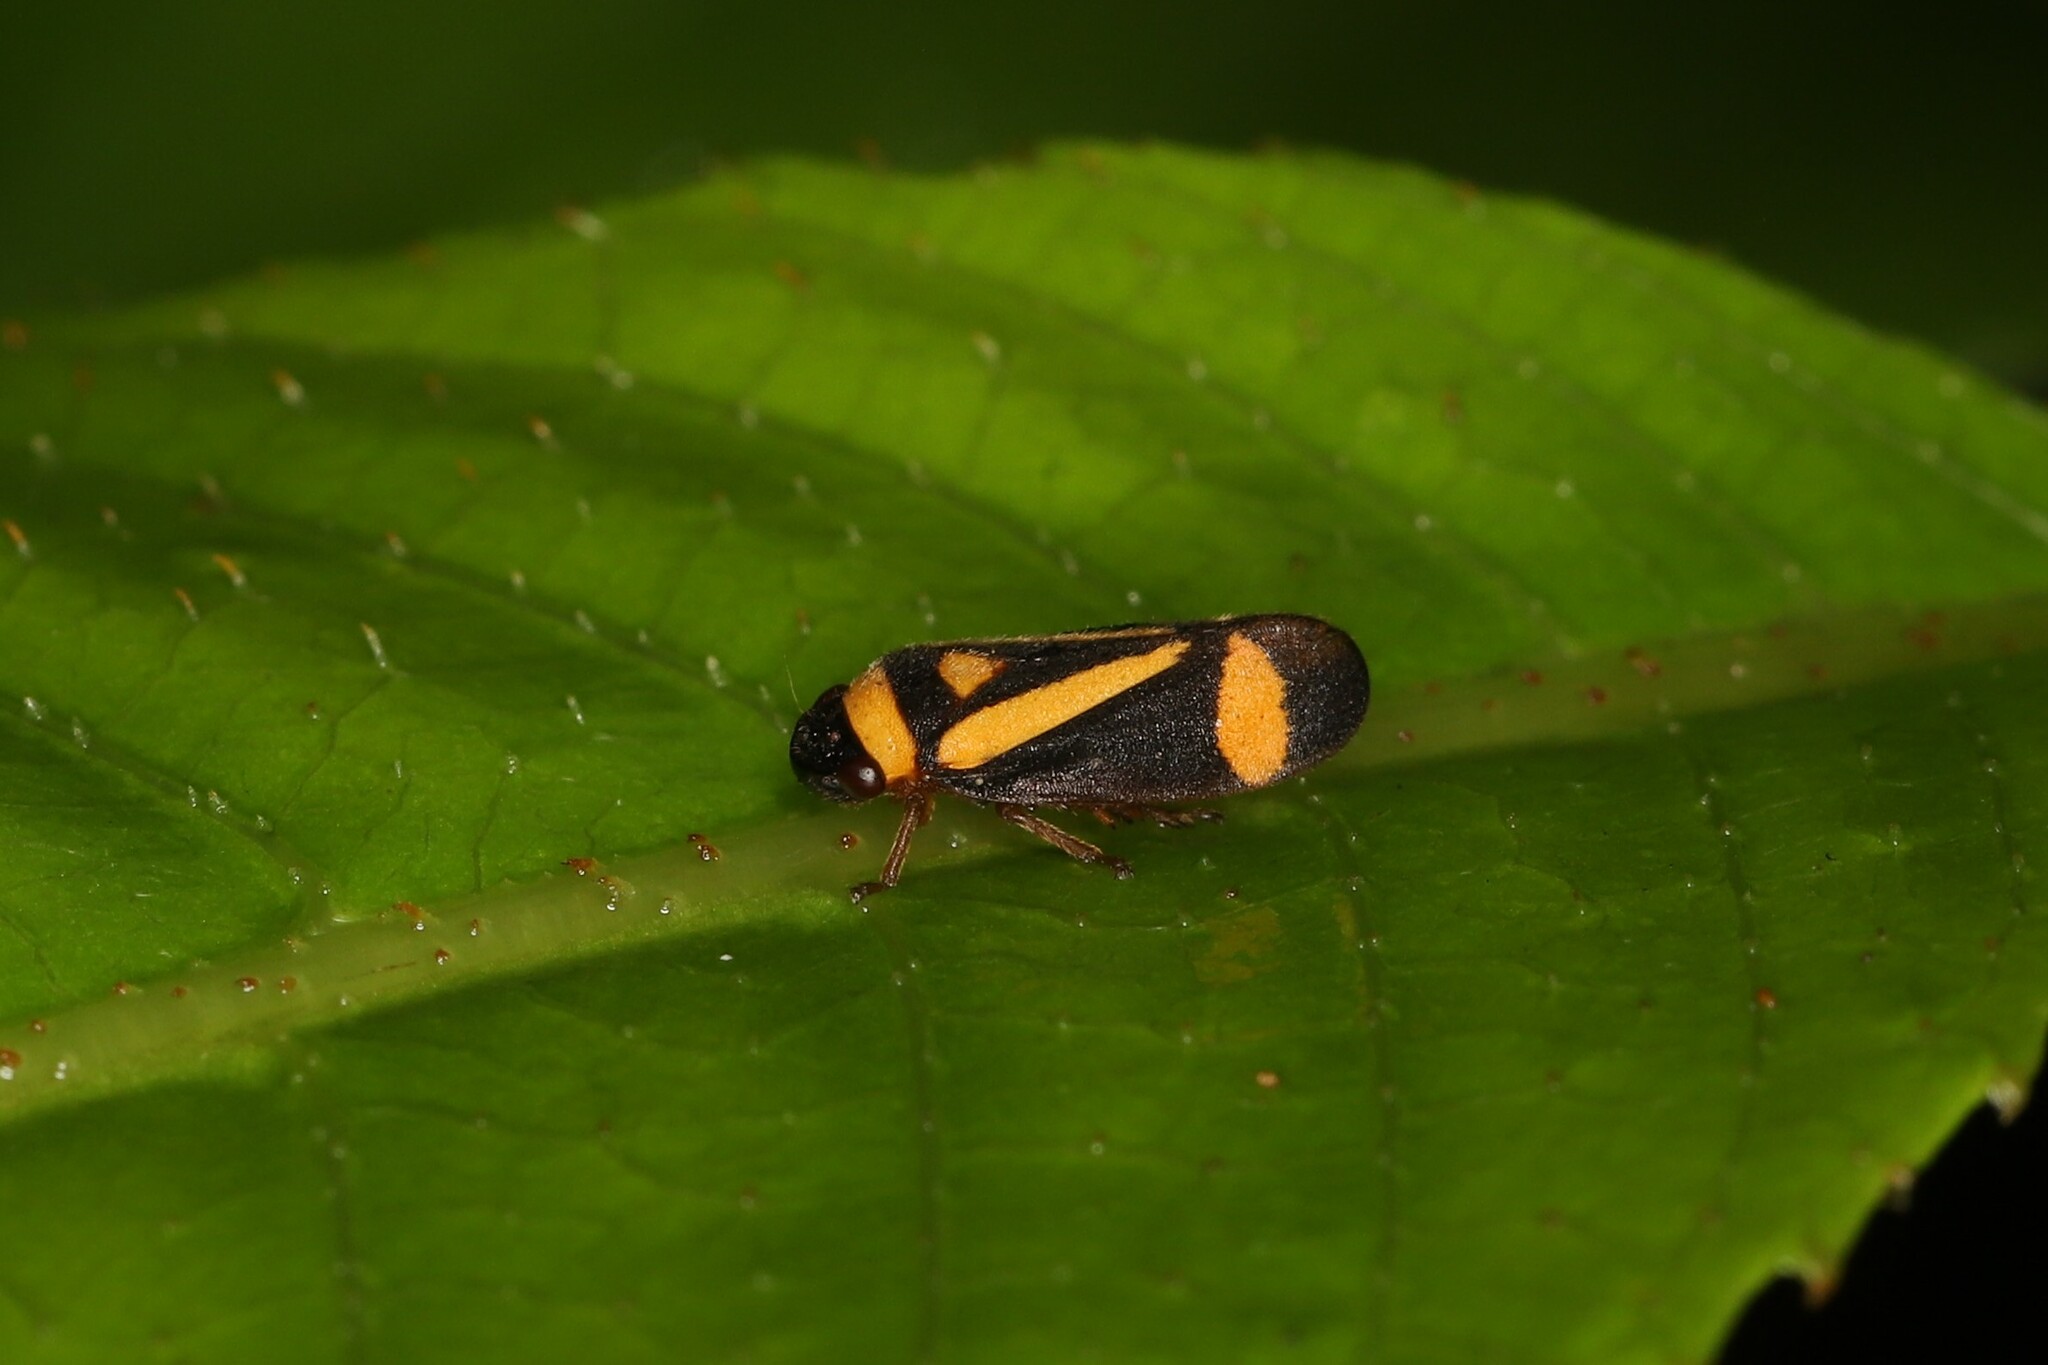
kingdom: Animalia
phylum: Arthropoda
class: Insecta
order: Hemiptera
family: Cercopidae
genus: Zuata
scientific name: Zuata nolckeni
